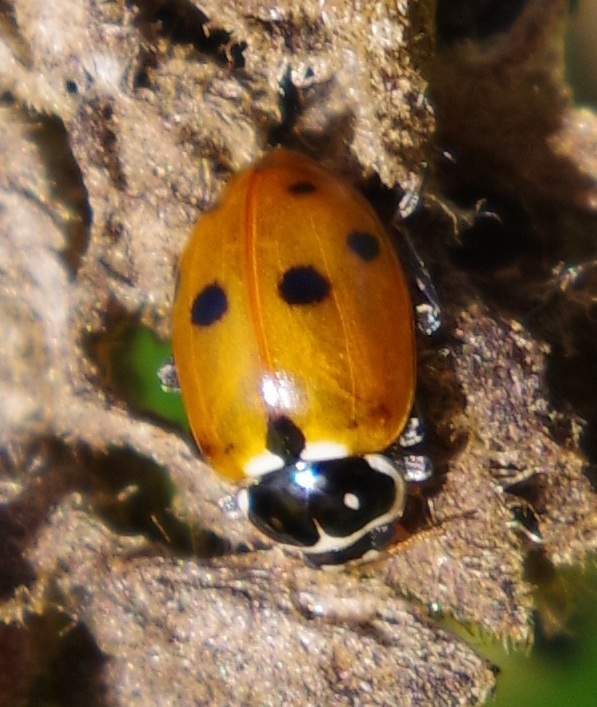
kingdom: Animalia
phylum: Arthropoda
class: Insecta
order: Coleoptera
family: Coccinellidae
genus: Hippodamia
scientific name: Hippodamia variegata
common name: Ladybird beetle
